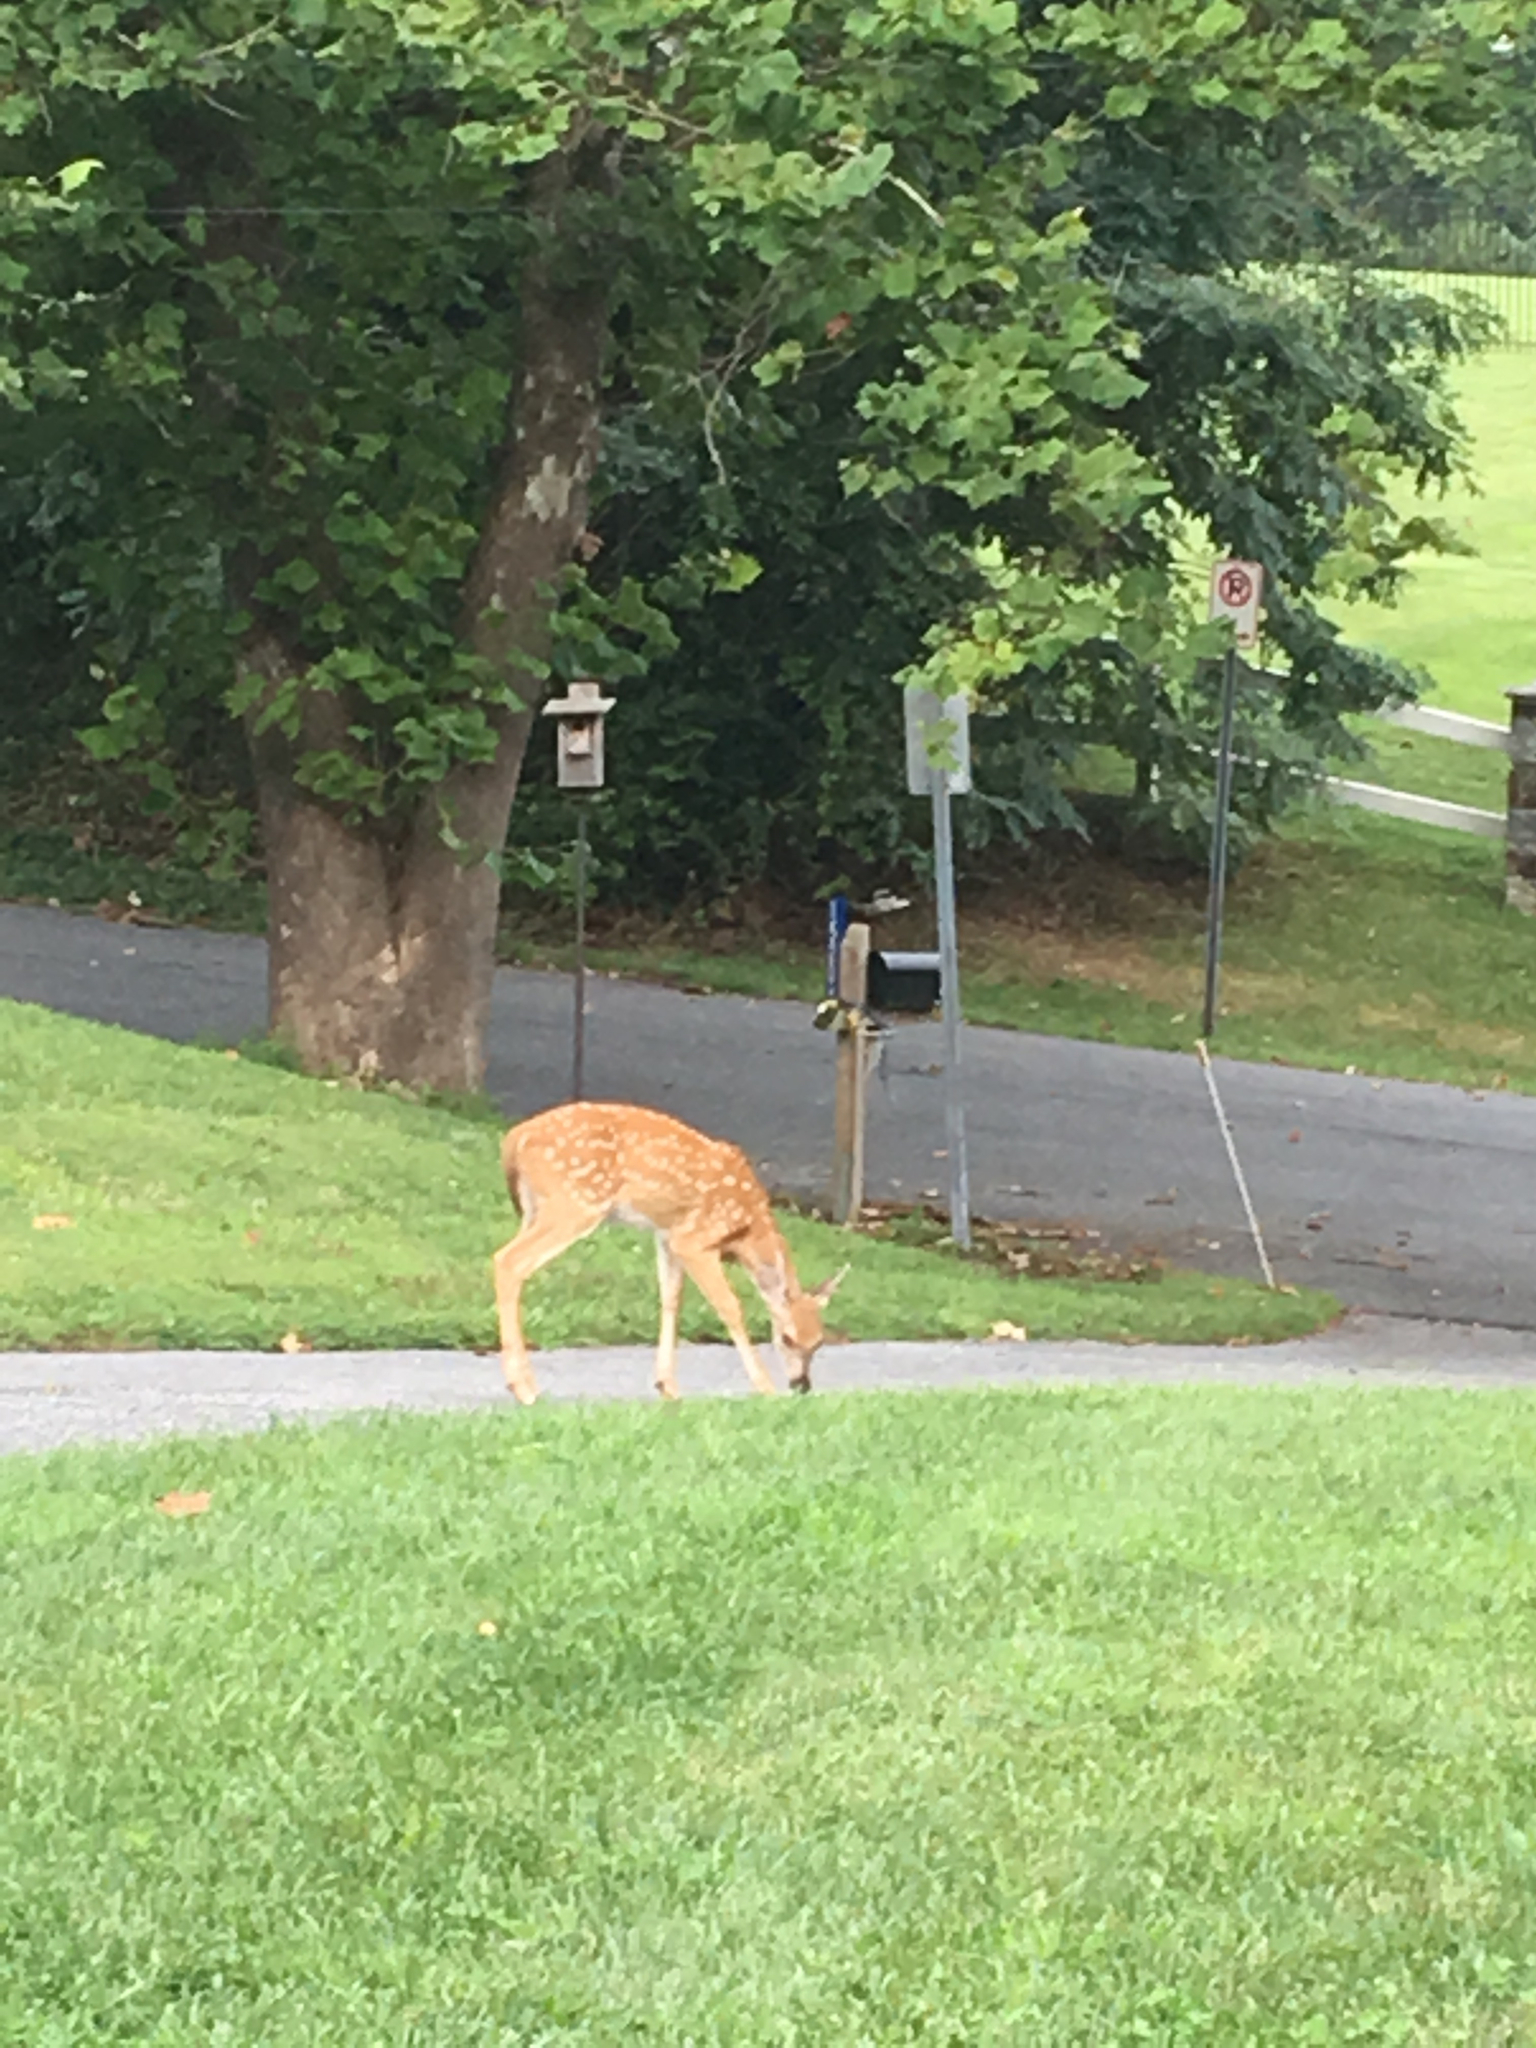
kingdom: Animalia
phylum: Chordata
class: Mammalia
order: Artiodactyla
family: Cervidae
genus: Odocoileus
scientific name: Odocoileus virginianus
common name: White-tailed deer
